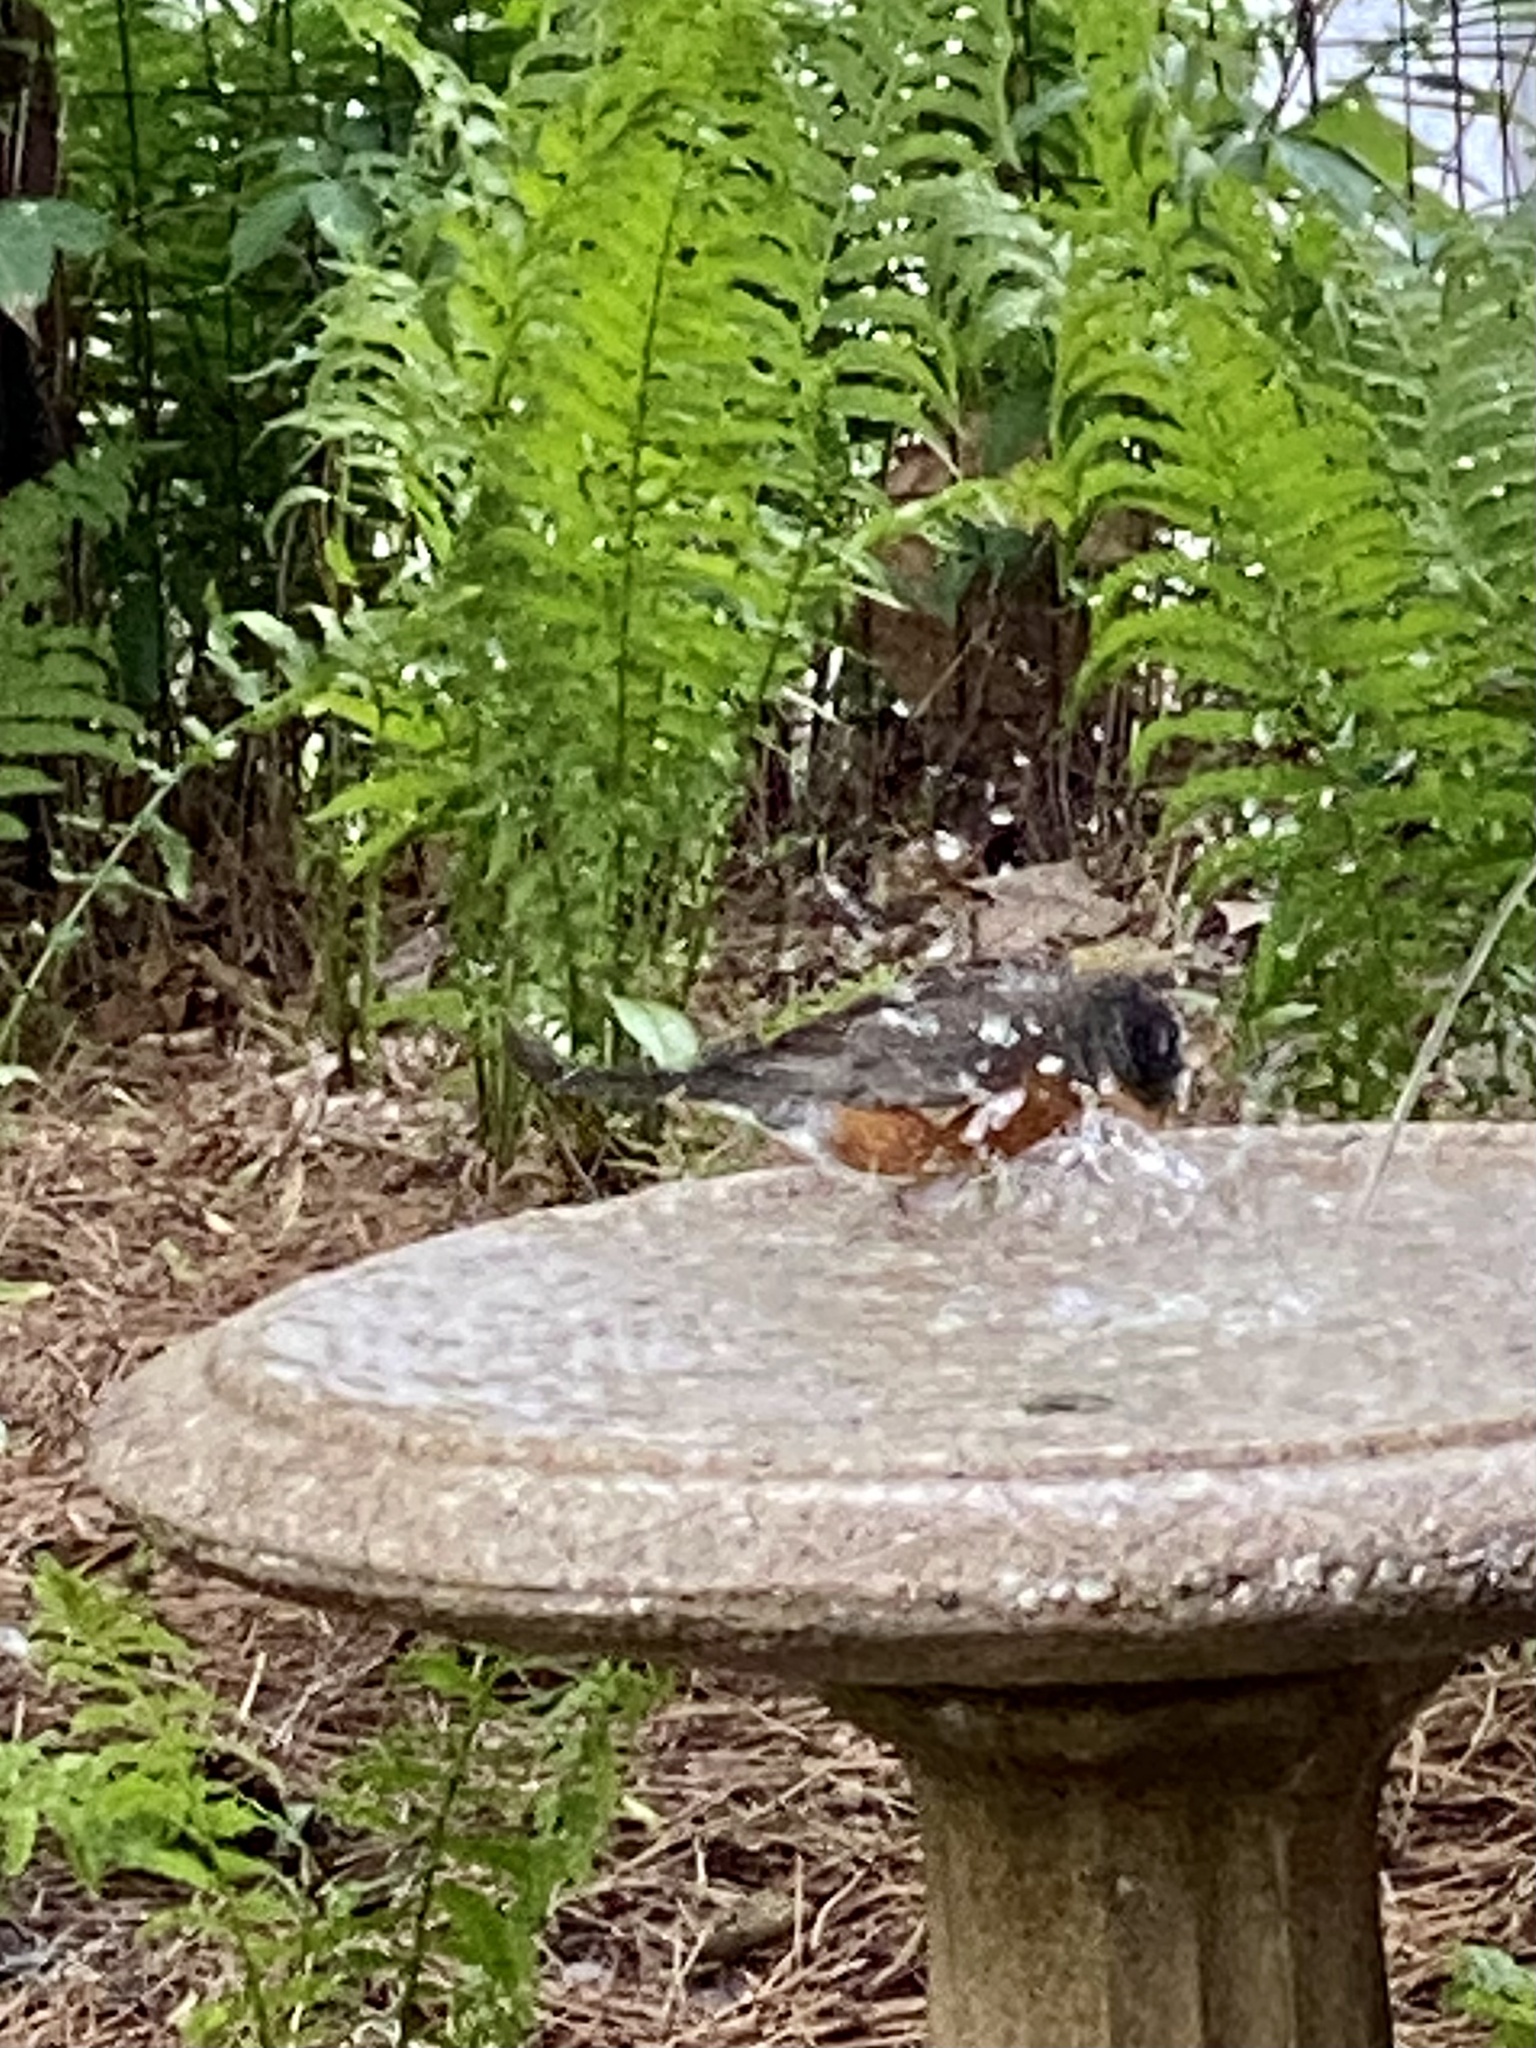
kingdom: Animalia
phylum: Chordata
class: Aves
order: Passeriformes
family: Turdidae
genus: Turdus
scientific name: Turdus migratorius
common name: American robin
